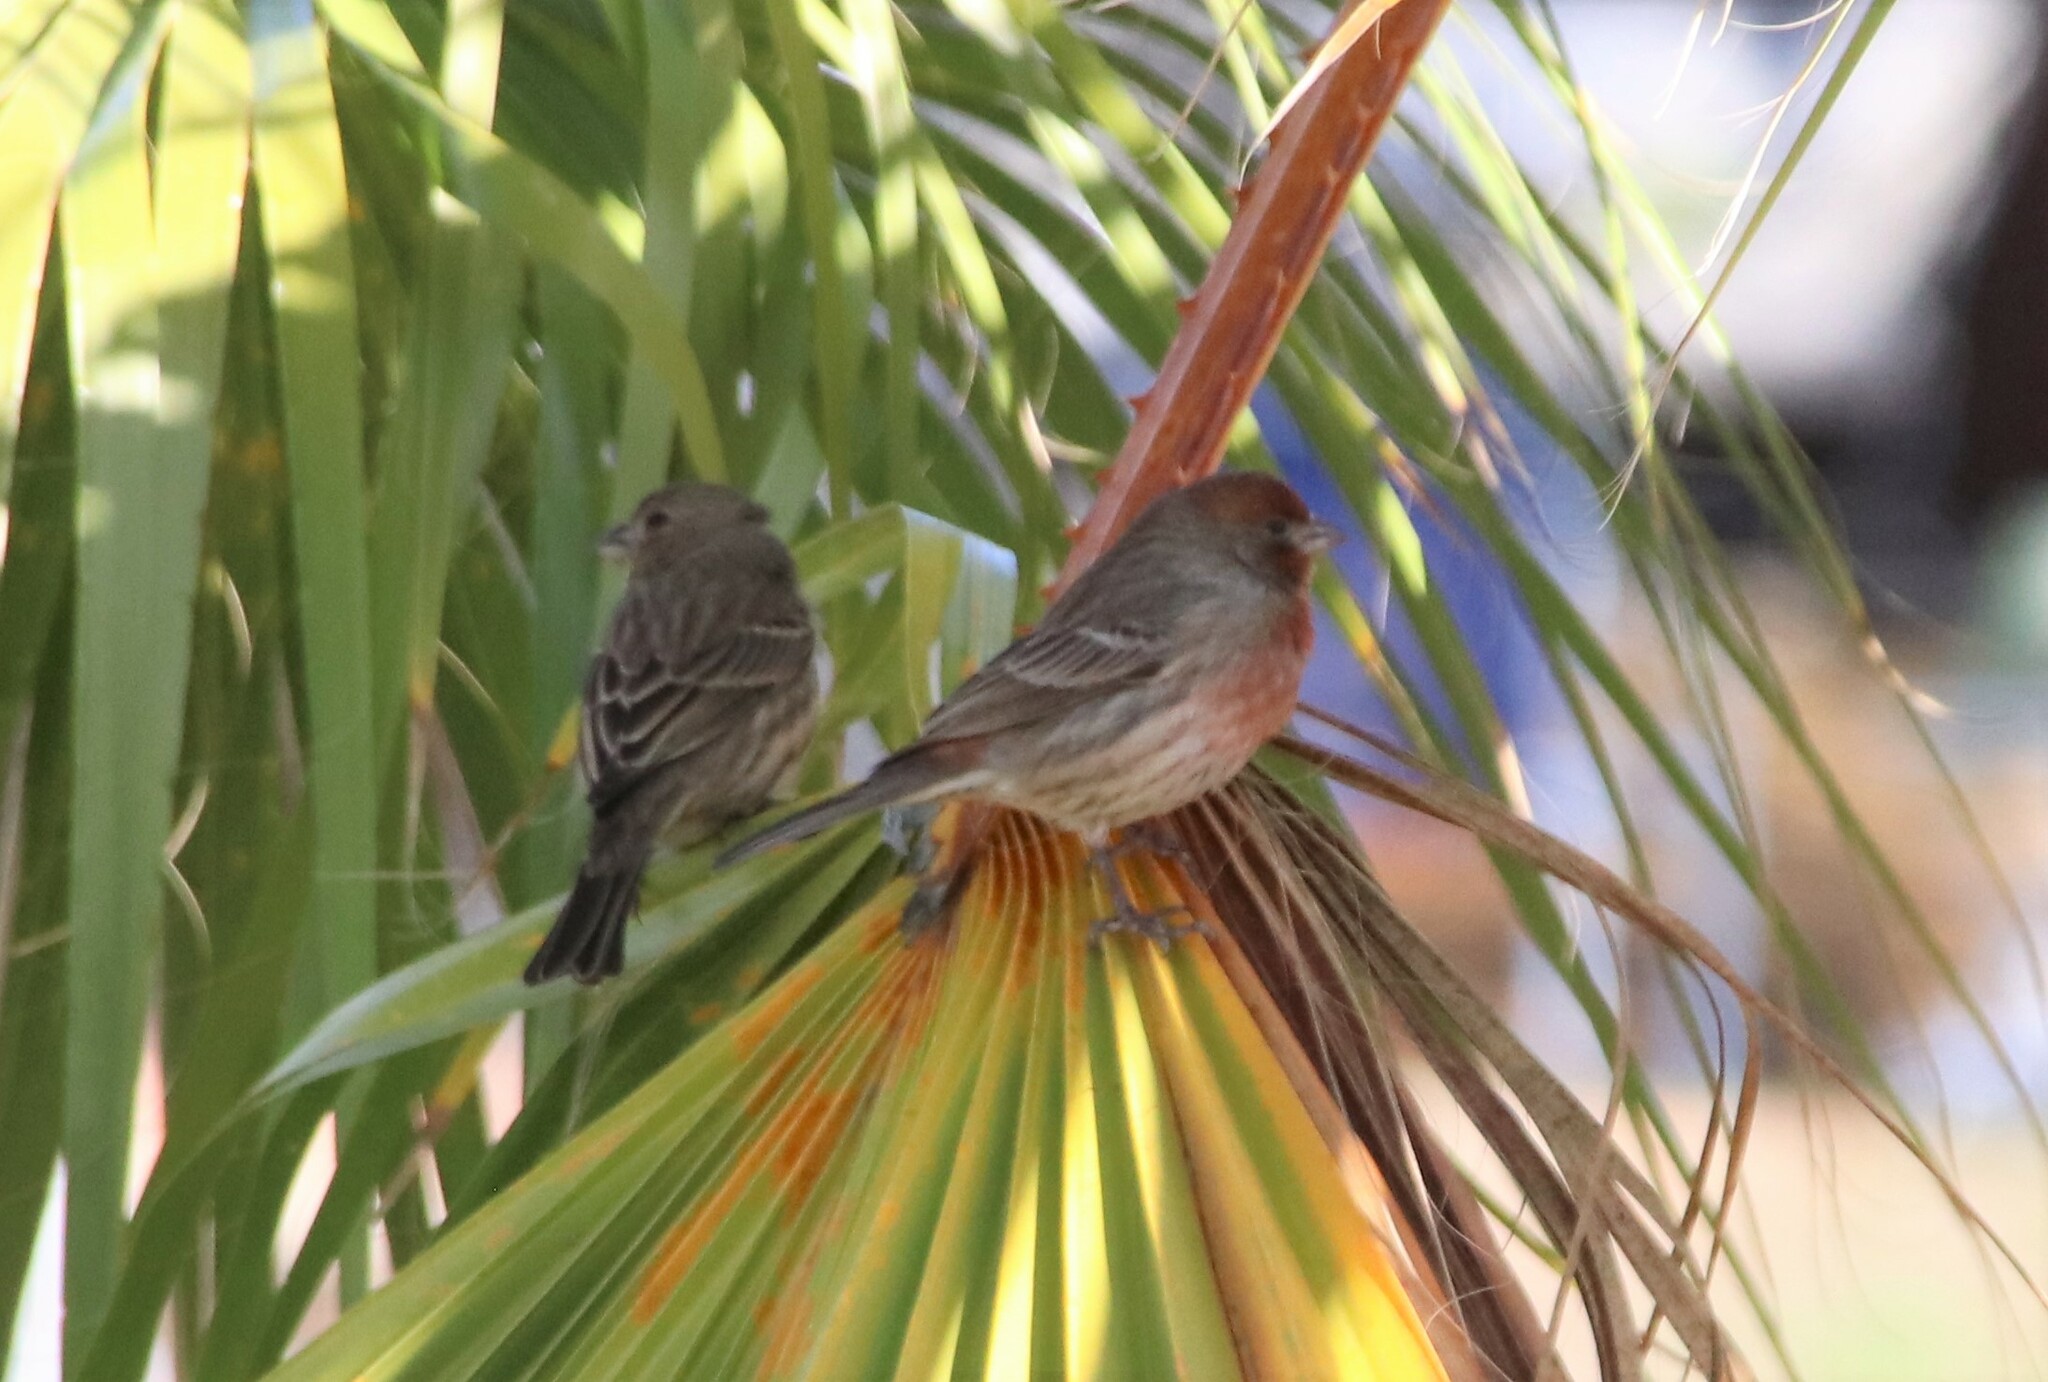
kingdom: Animalia
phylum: Chordata
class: Aves
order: Passeriformes
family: Fringillidae
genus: Haemorhous
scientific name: Haemorhous mexicanus
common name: House finch
